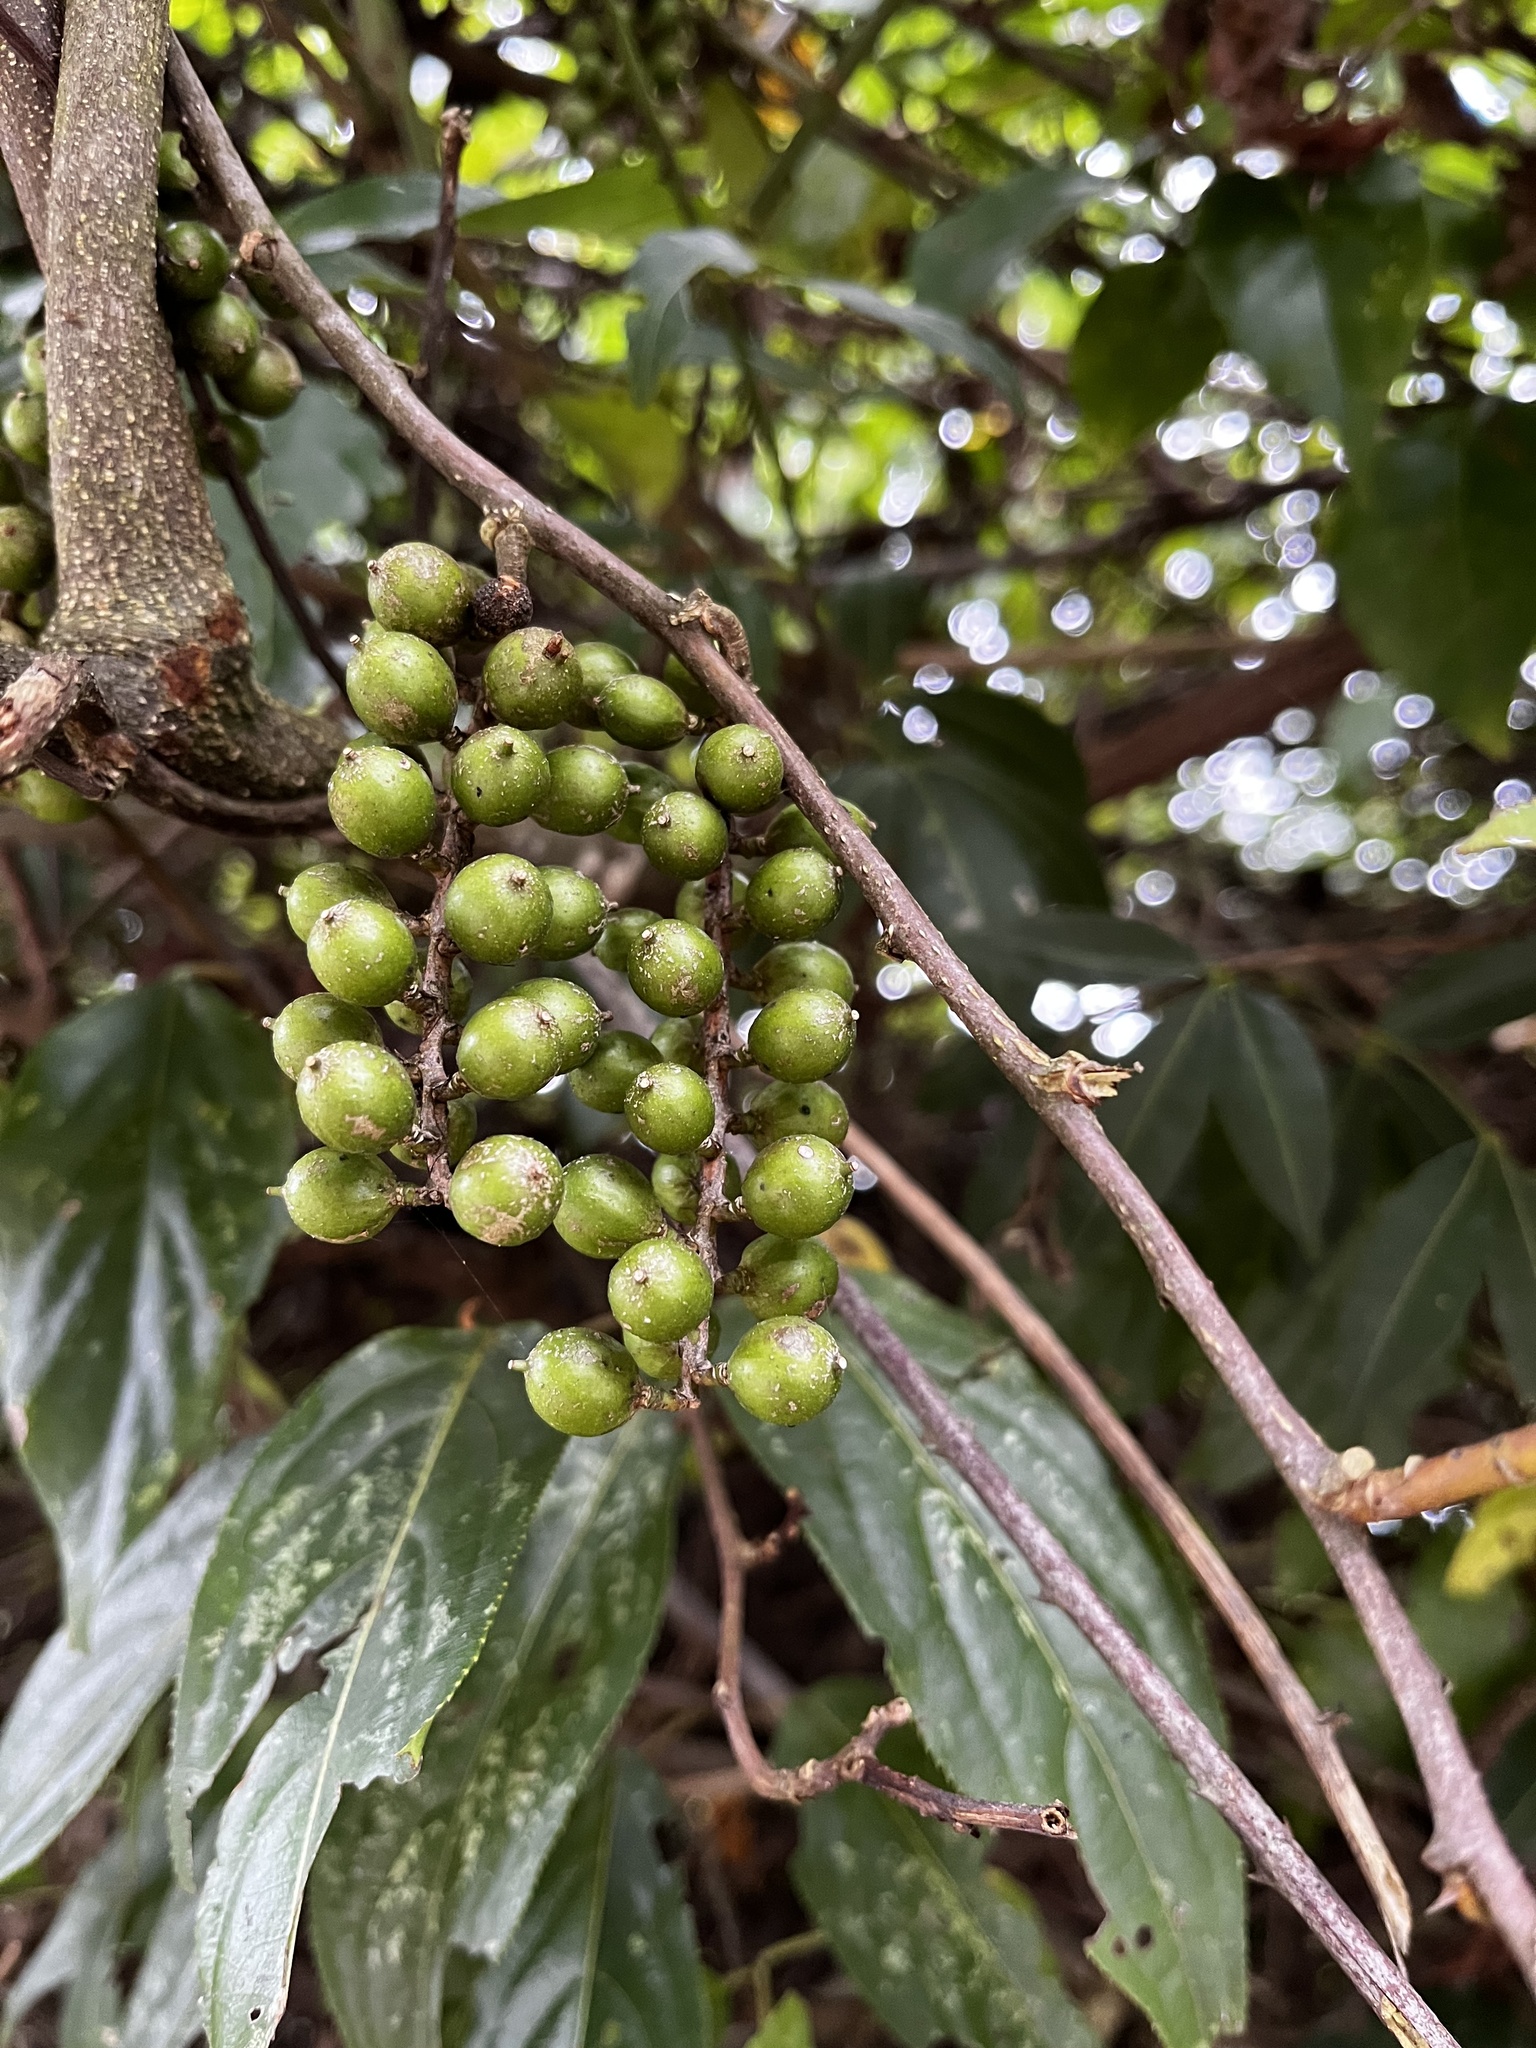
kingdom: Plantae
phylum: Tracheophyta
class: Magnoliopsida
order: Crossosomatales
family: Stachyuraceae
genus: Stachyurus
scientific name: Stachyurus himalaicus
